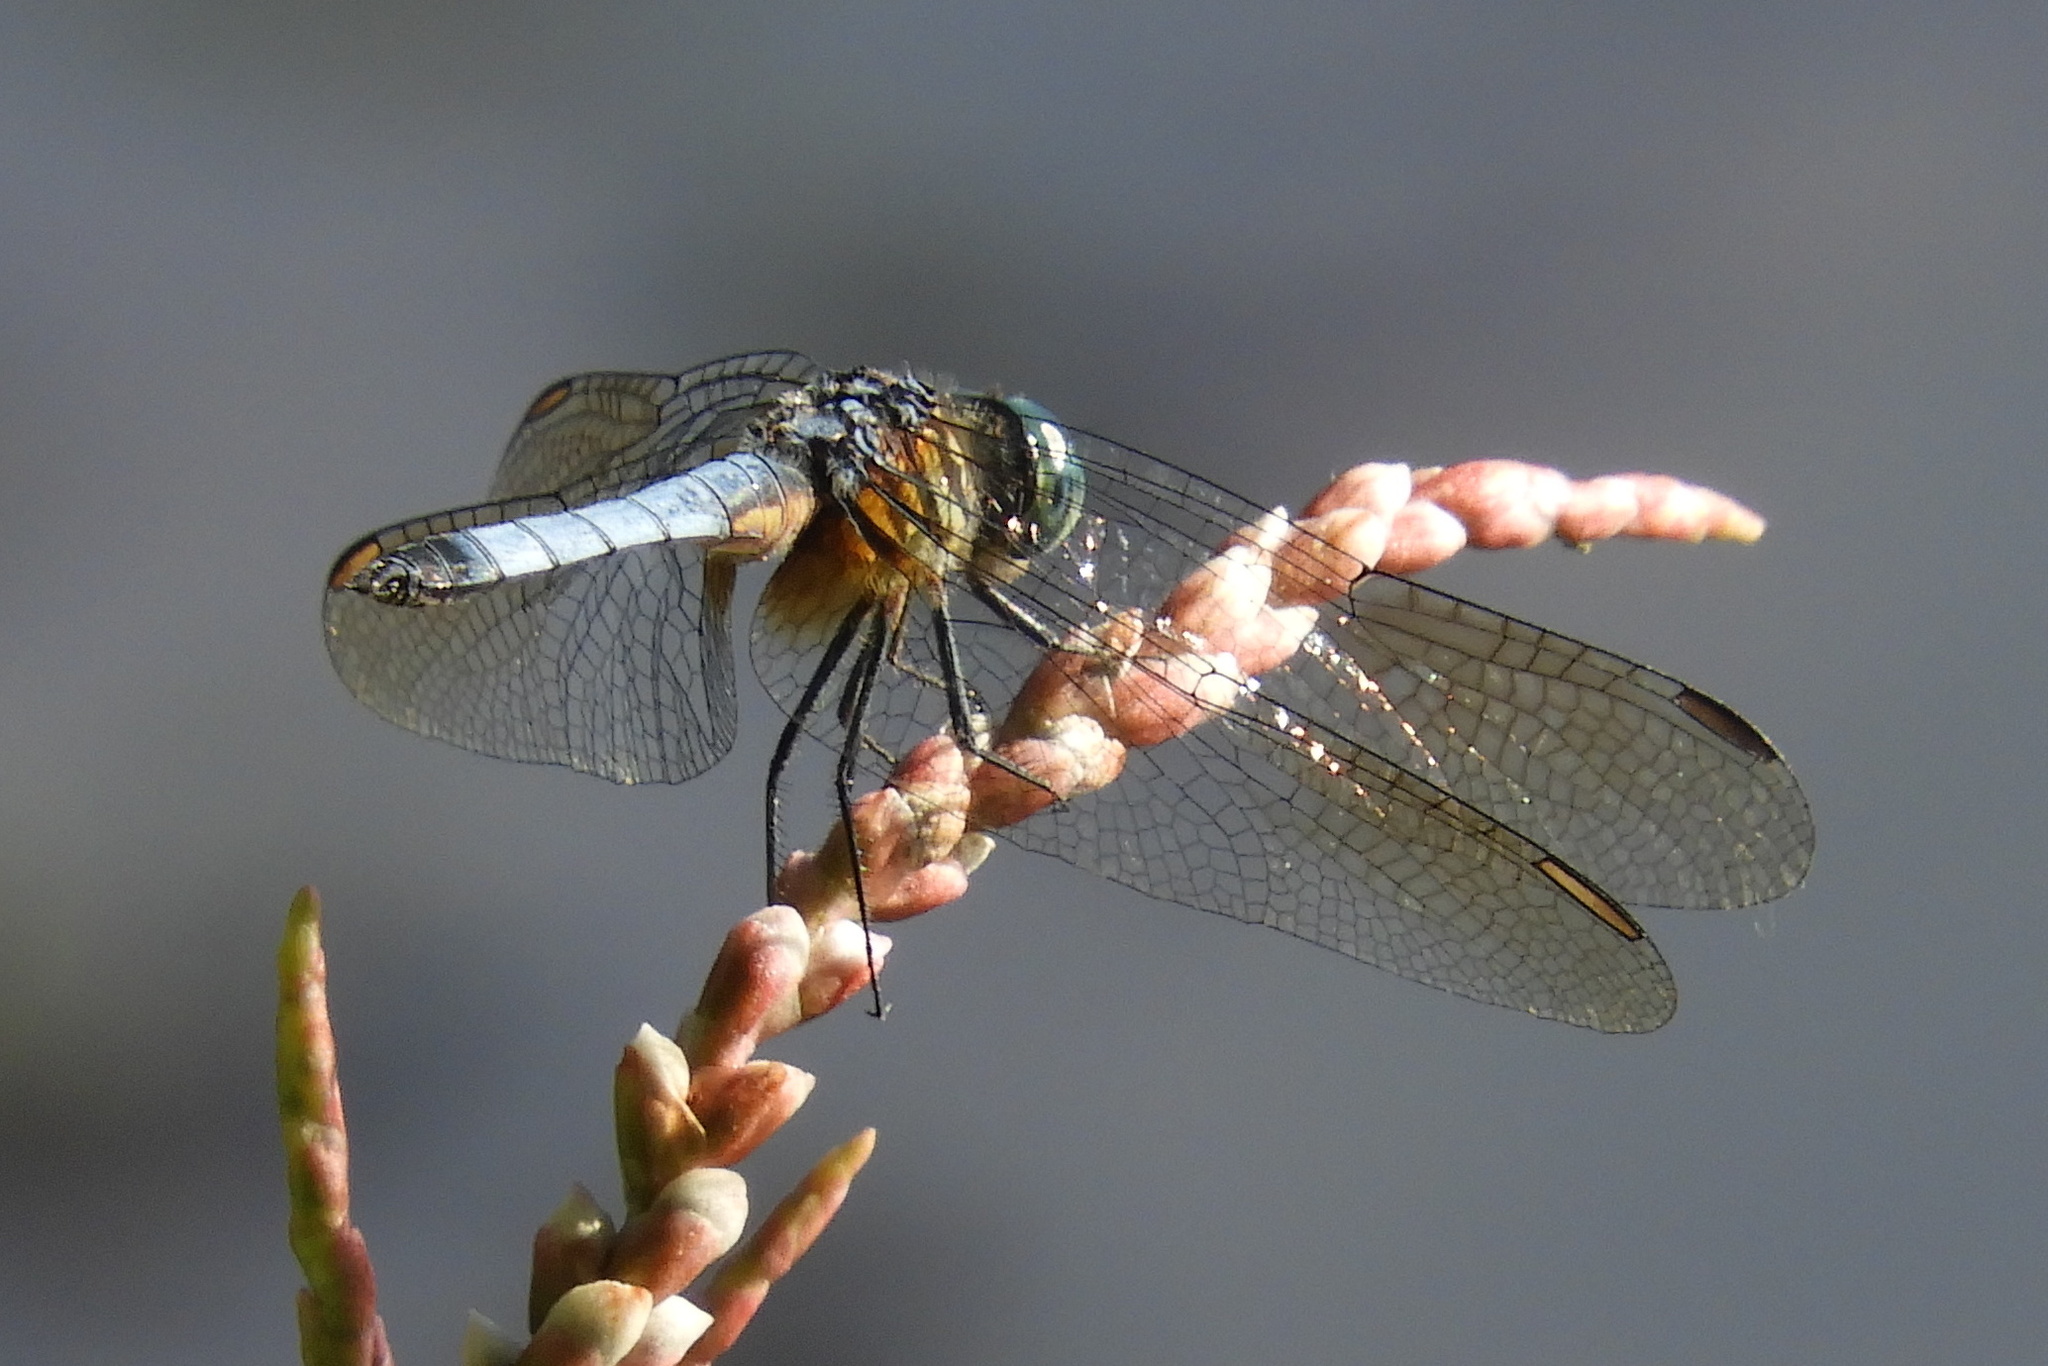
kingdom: Animalia
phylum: Arthropoda
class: Insecta
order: Odonata
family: Libellulidae
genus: Pachydiplax
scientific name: Pachydiplax longipennis
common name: Blue dasher
